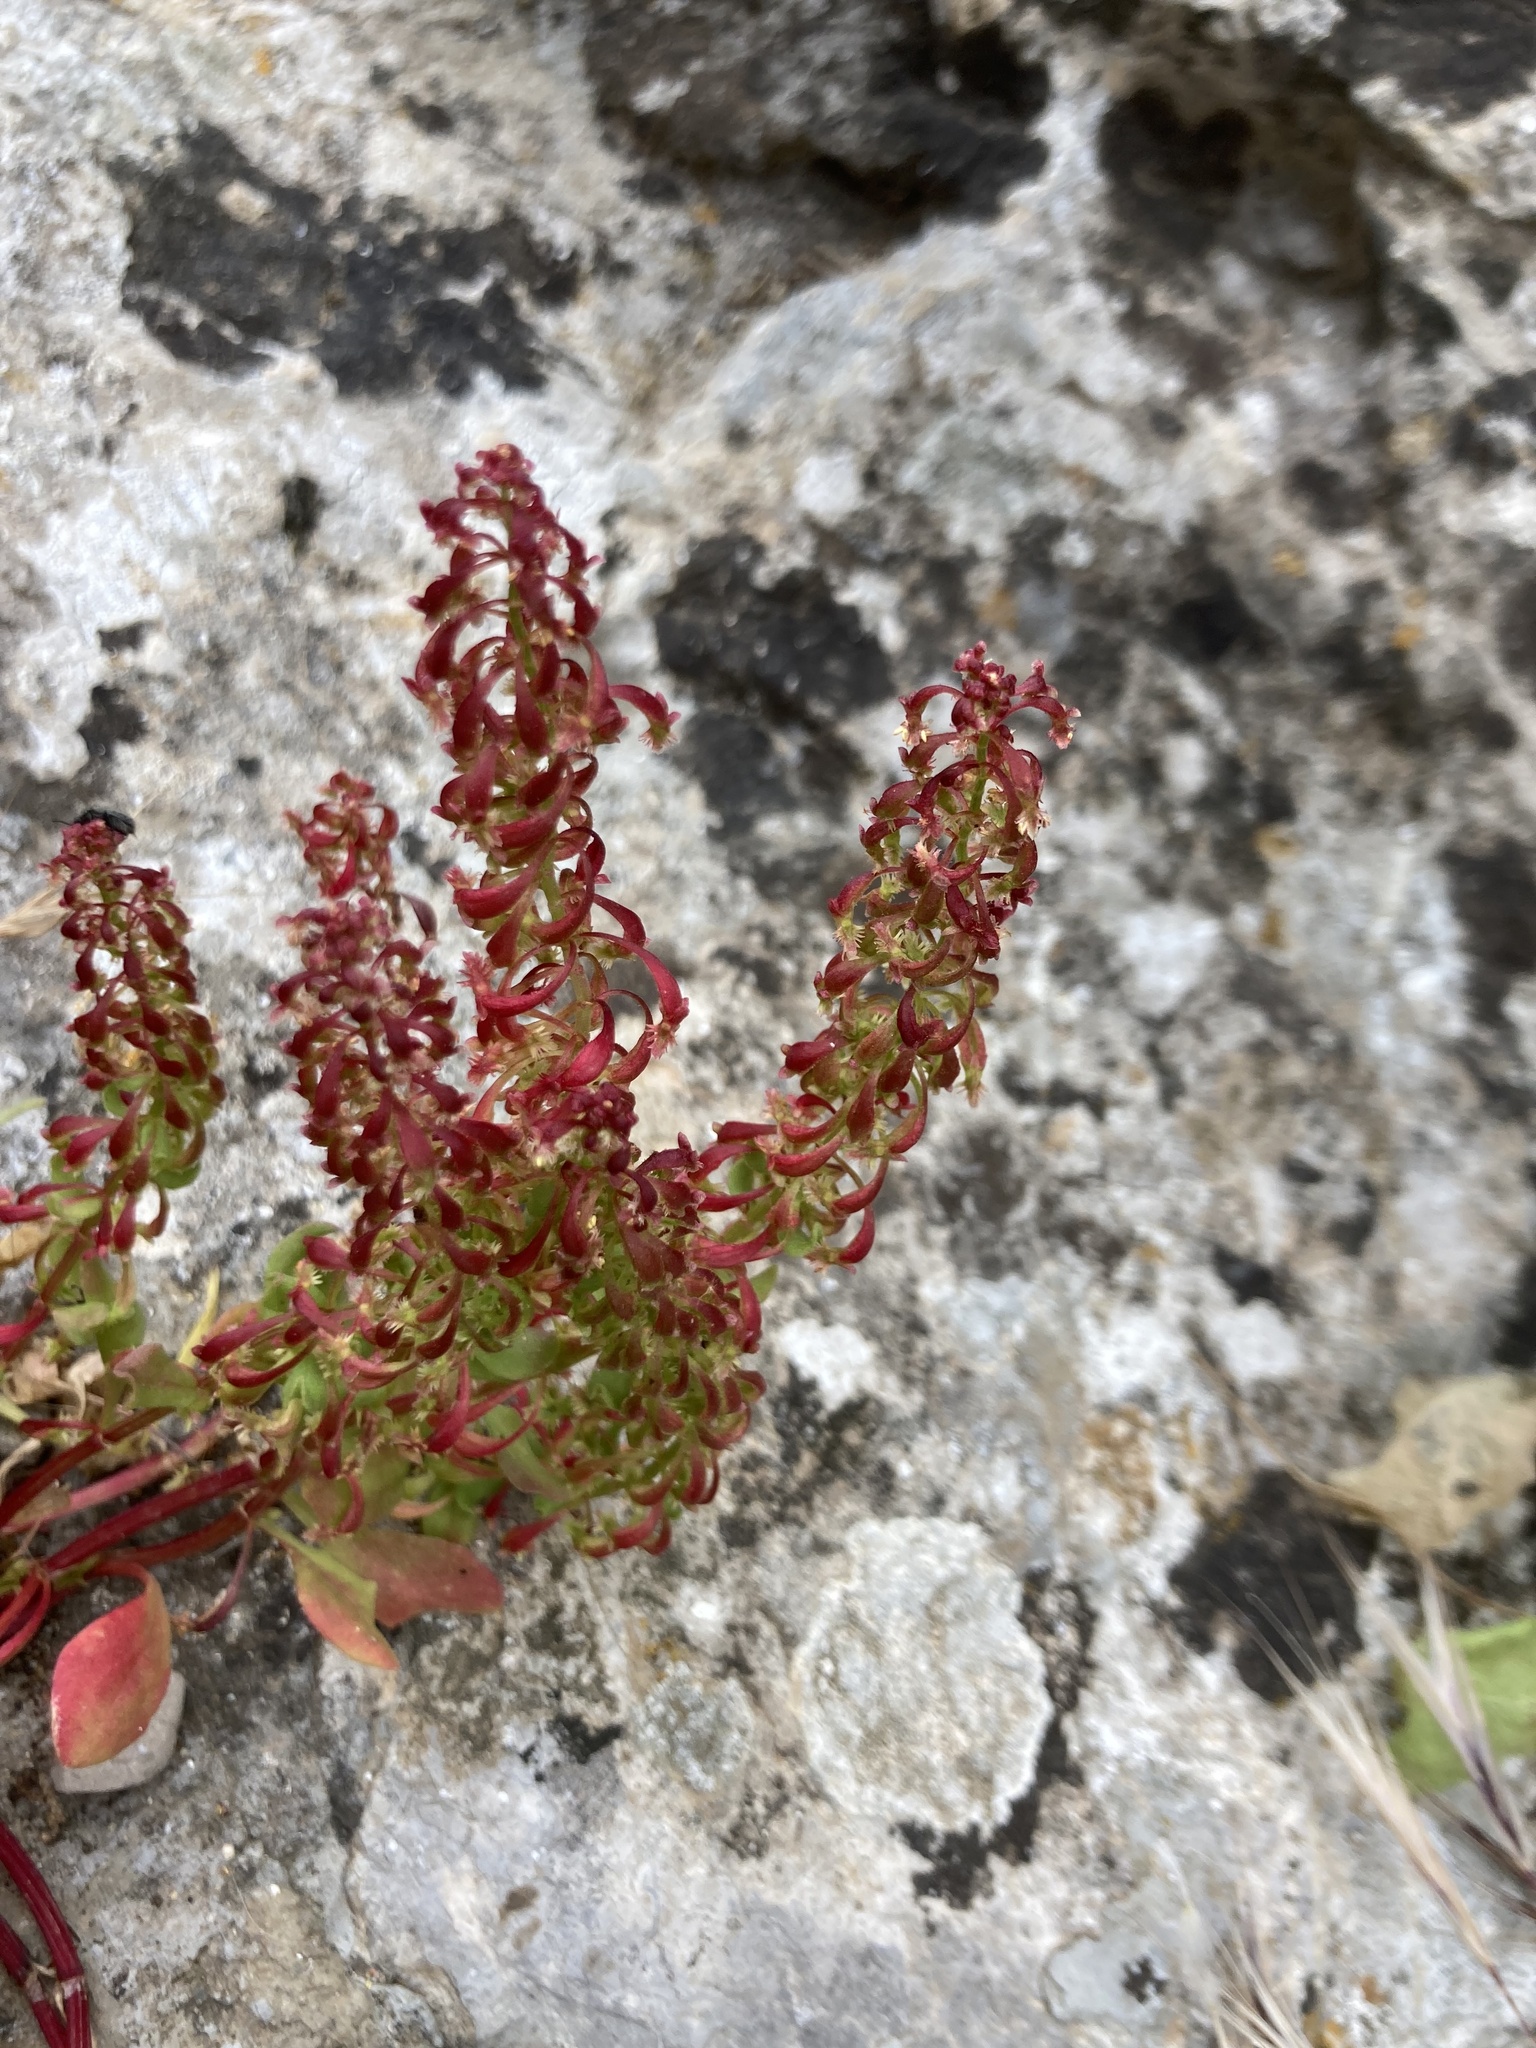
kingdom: Plantae
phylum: Tracheophyta
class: Magnoliopsida
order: Caryophyllales
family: Polygonaceae
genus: Rumex
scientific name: Rumex bucephalophorus
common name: Red dock
